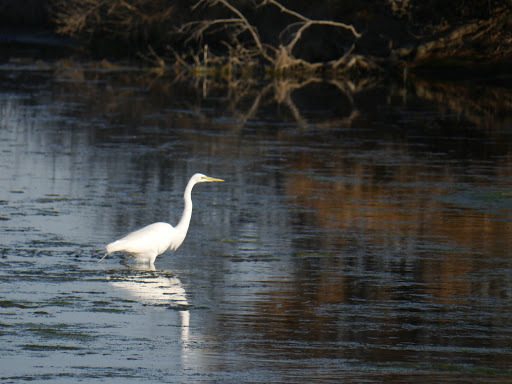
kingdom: Animalia
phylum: Chordata
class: Aves
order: Pelecaniformes
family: Ardeidae
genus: Ardea
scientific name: Ardea alba
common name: Great egret
